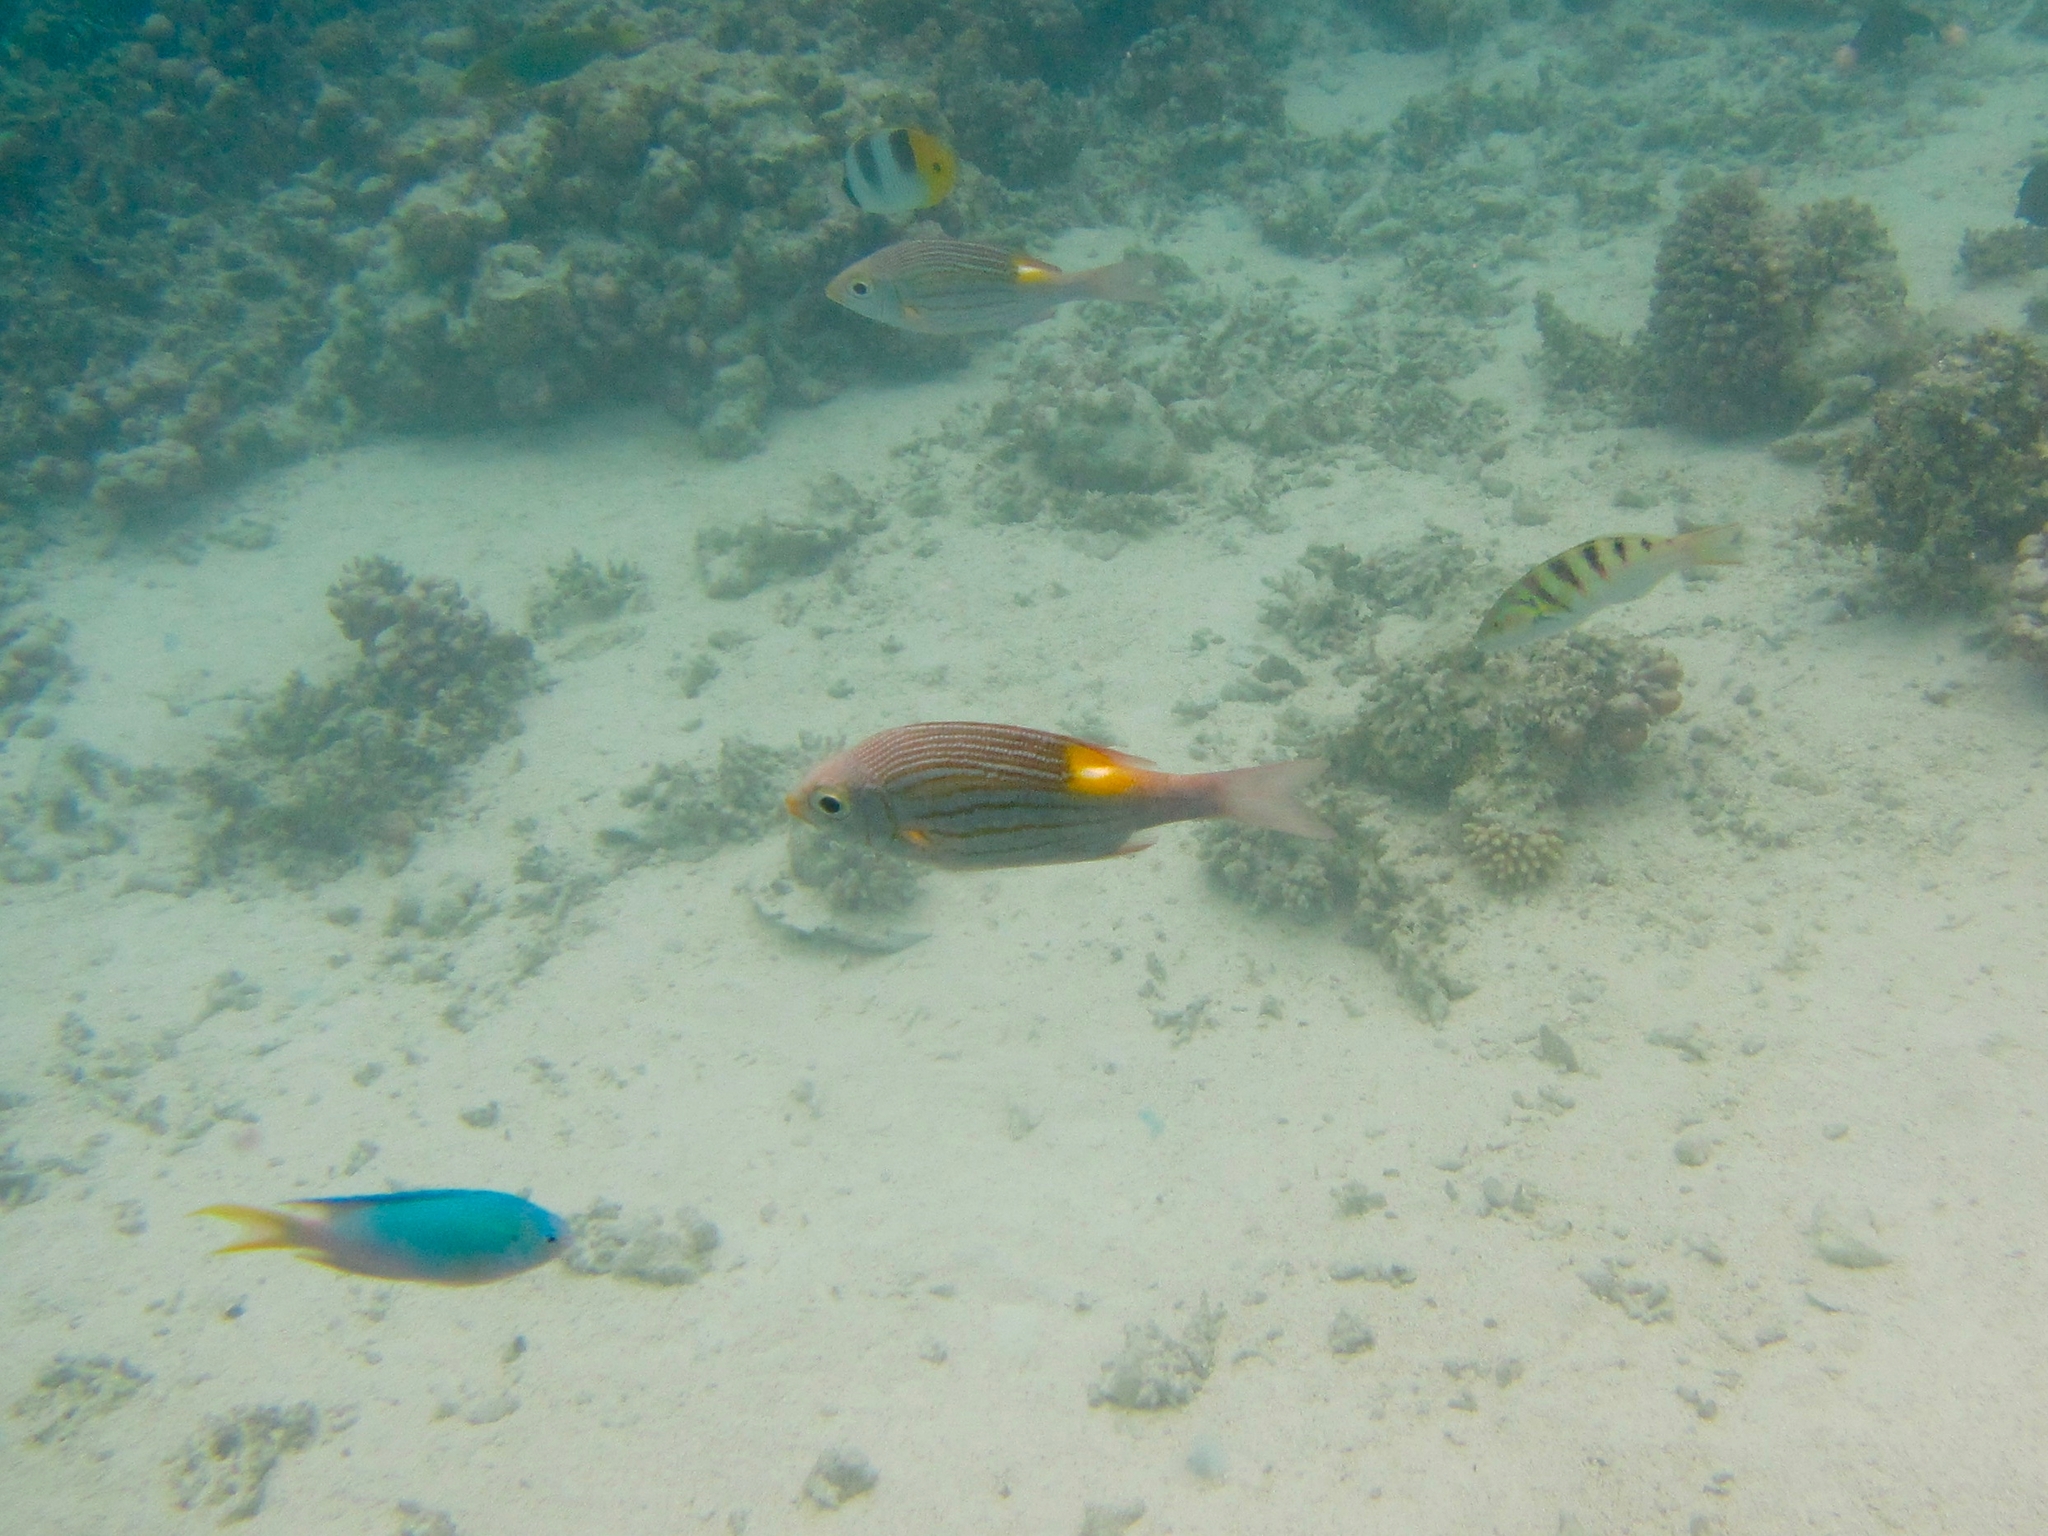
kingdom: Animalia
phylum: Chordata
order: Perciformes
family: Lethrinidae
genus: Gnathodentex
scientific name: Gnathodentex aureolineatus
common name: Gold-lined sea bream
